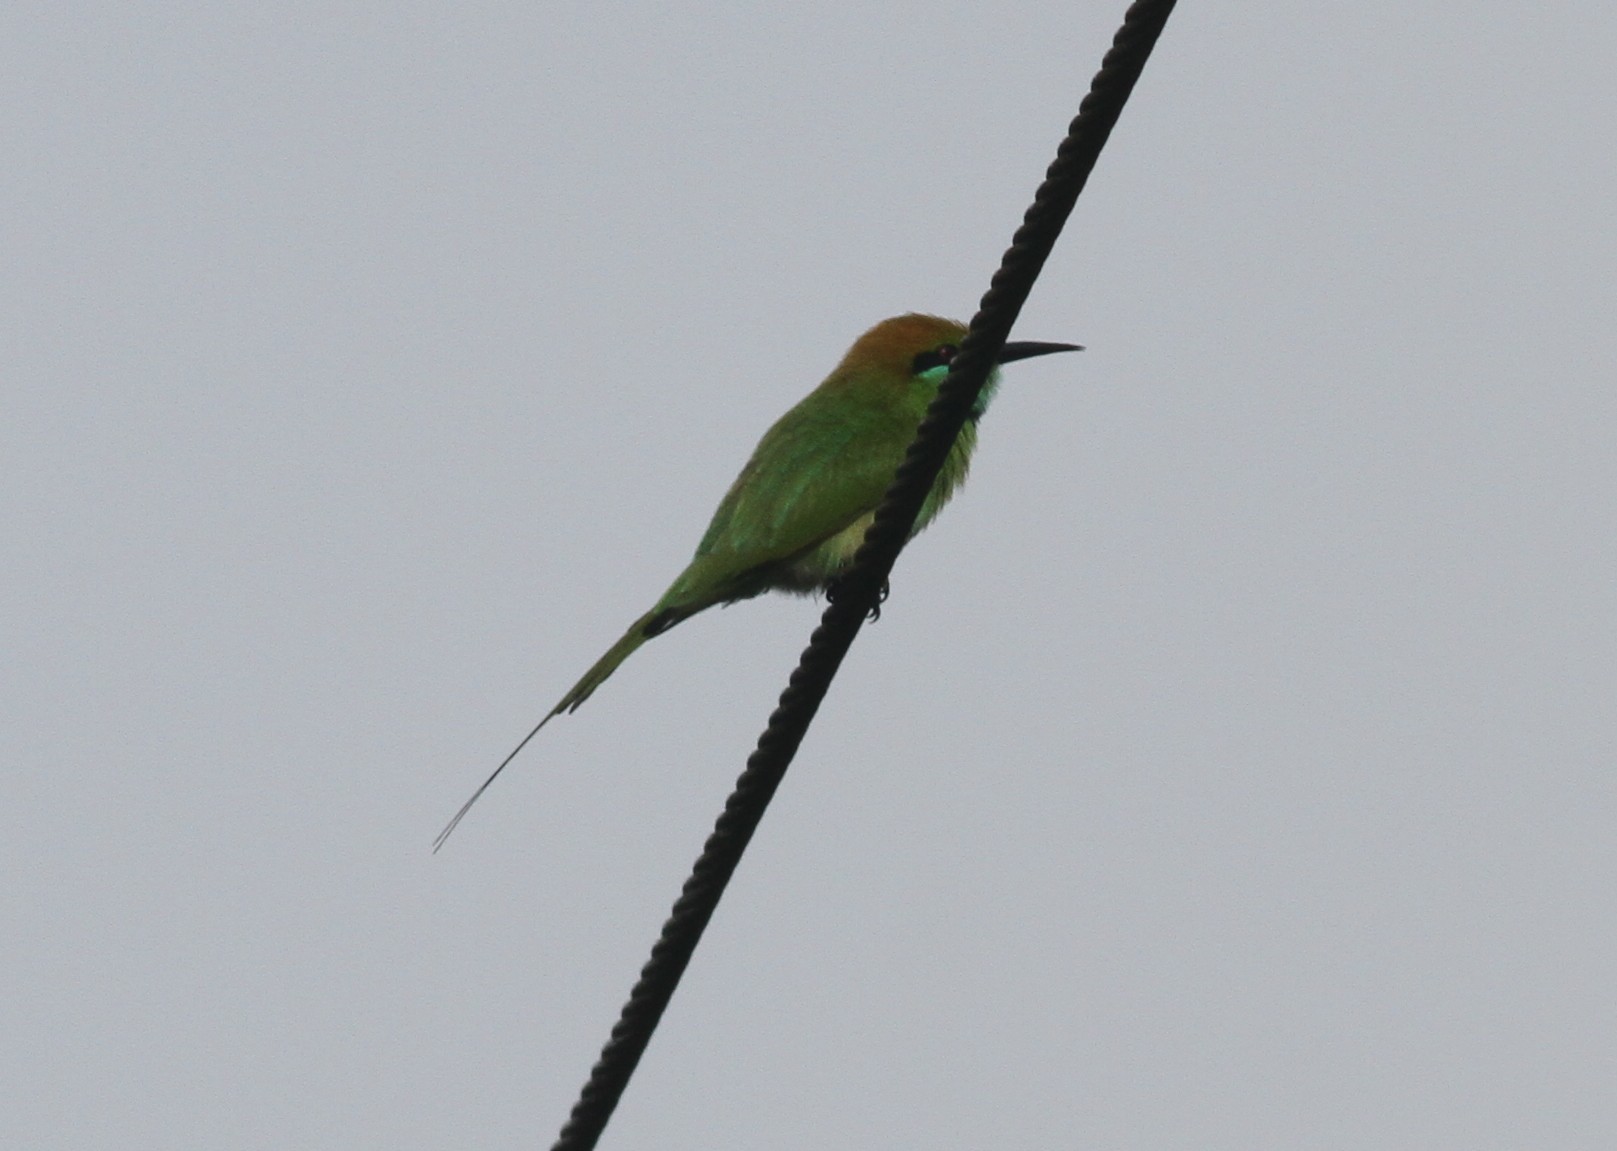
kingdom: Animalia
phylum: Chordata
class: Aves
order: Coraciiformes
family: Meropidae
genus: Merops
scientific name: Merops orientalis
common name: Green bee-eater
